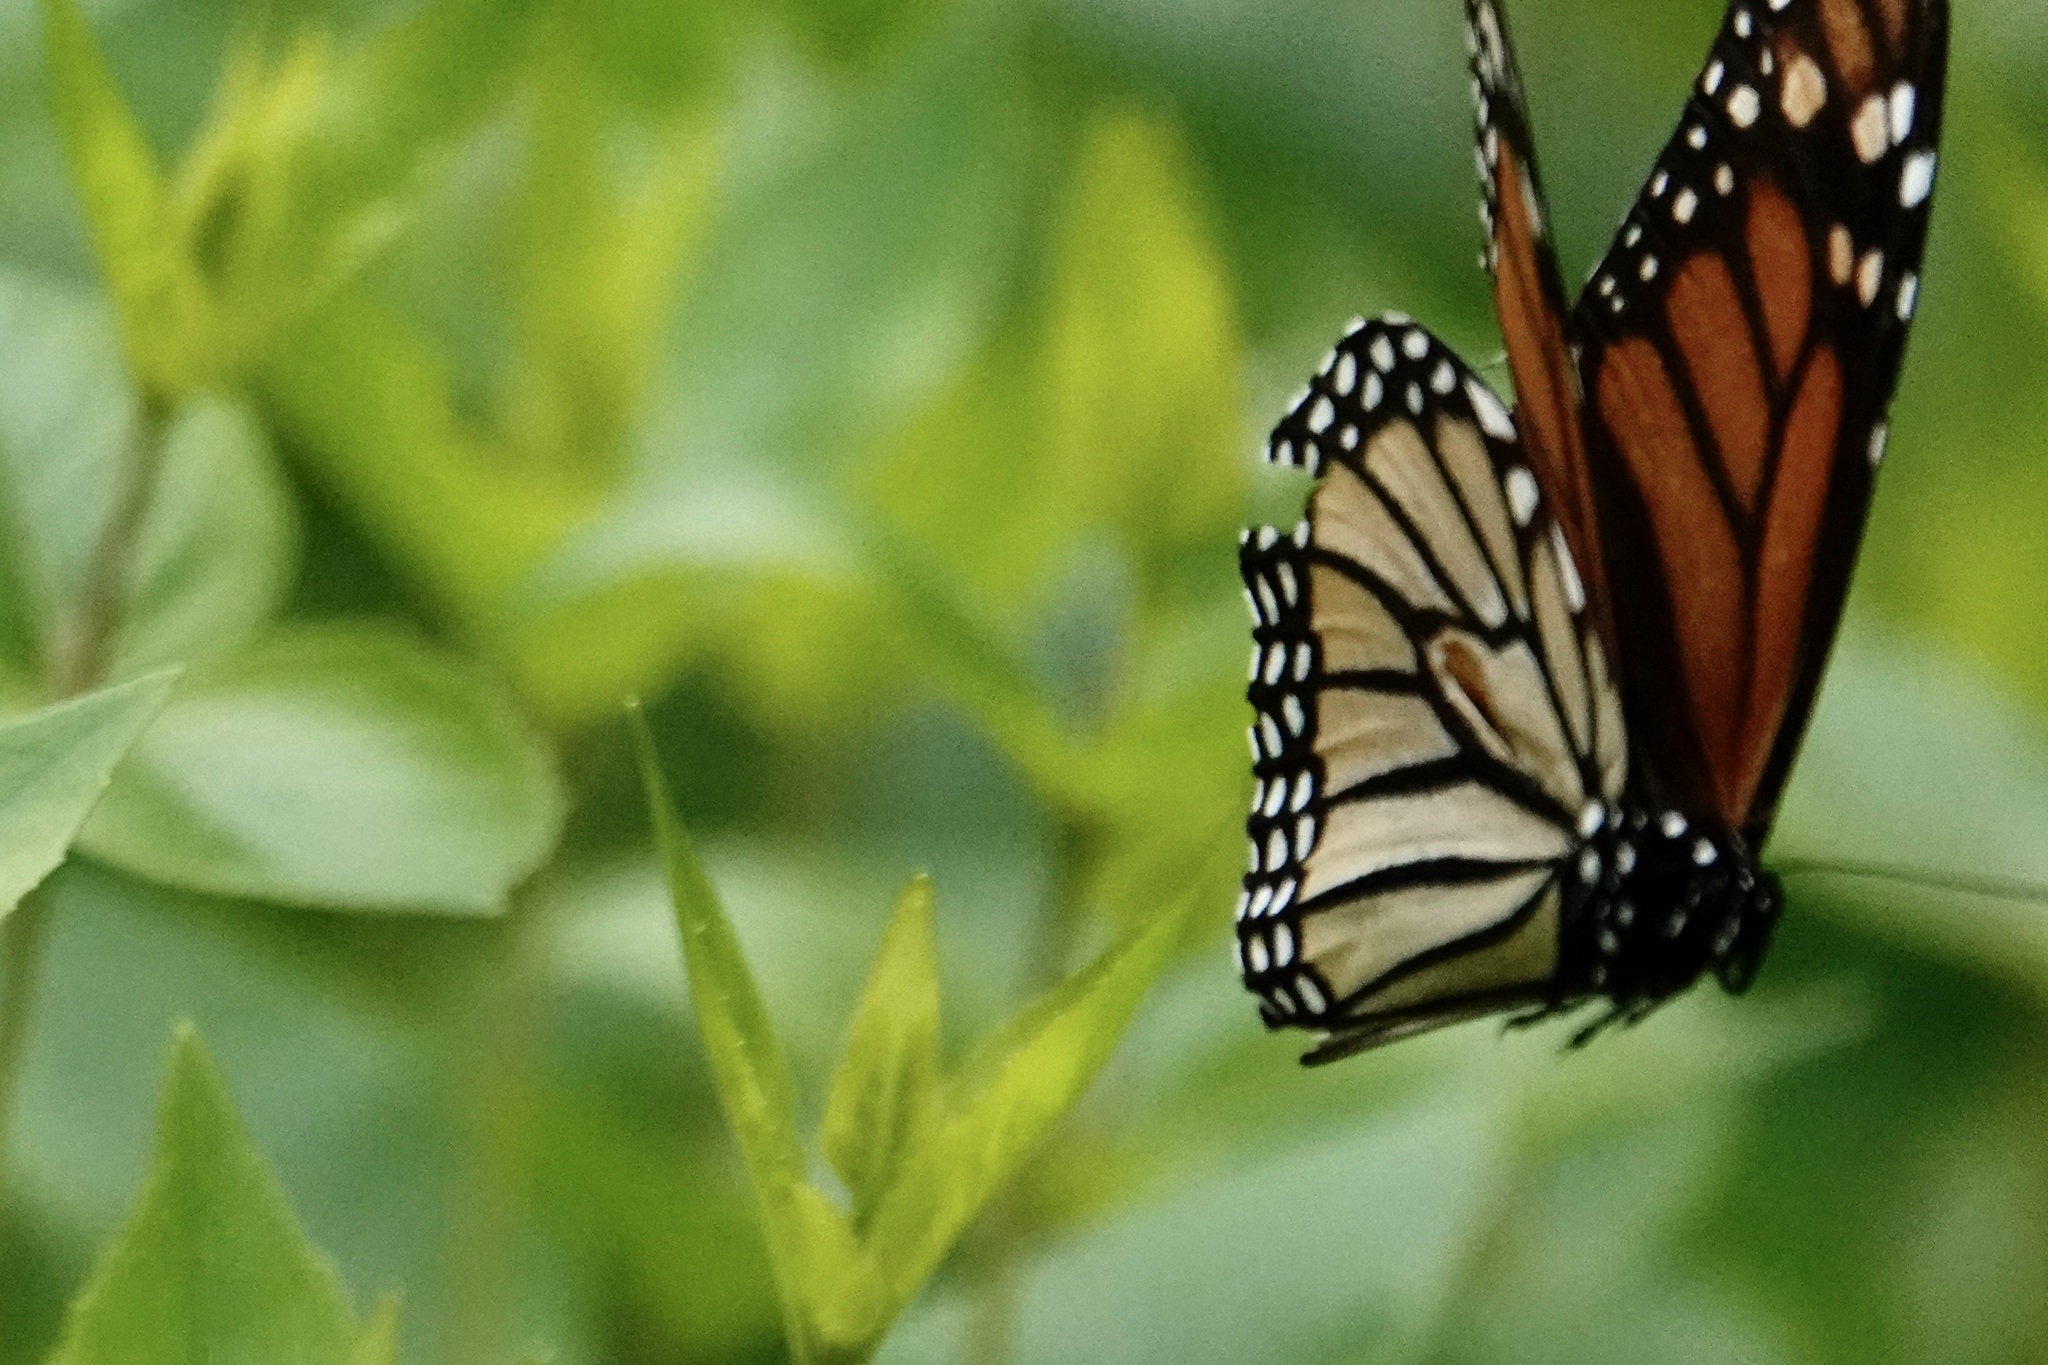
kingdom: Animalia
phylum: Arthropoda
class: Insecta
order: Lepidoptera
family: Nymphalidae
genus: Danaus
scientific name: Danaus plexippus
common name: Monarch
